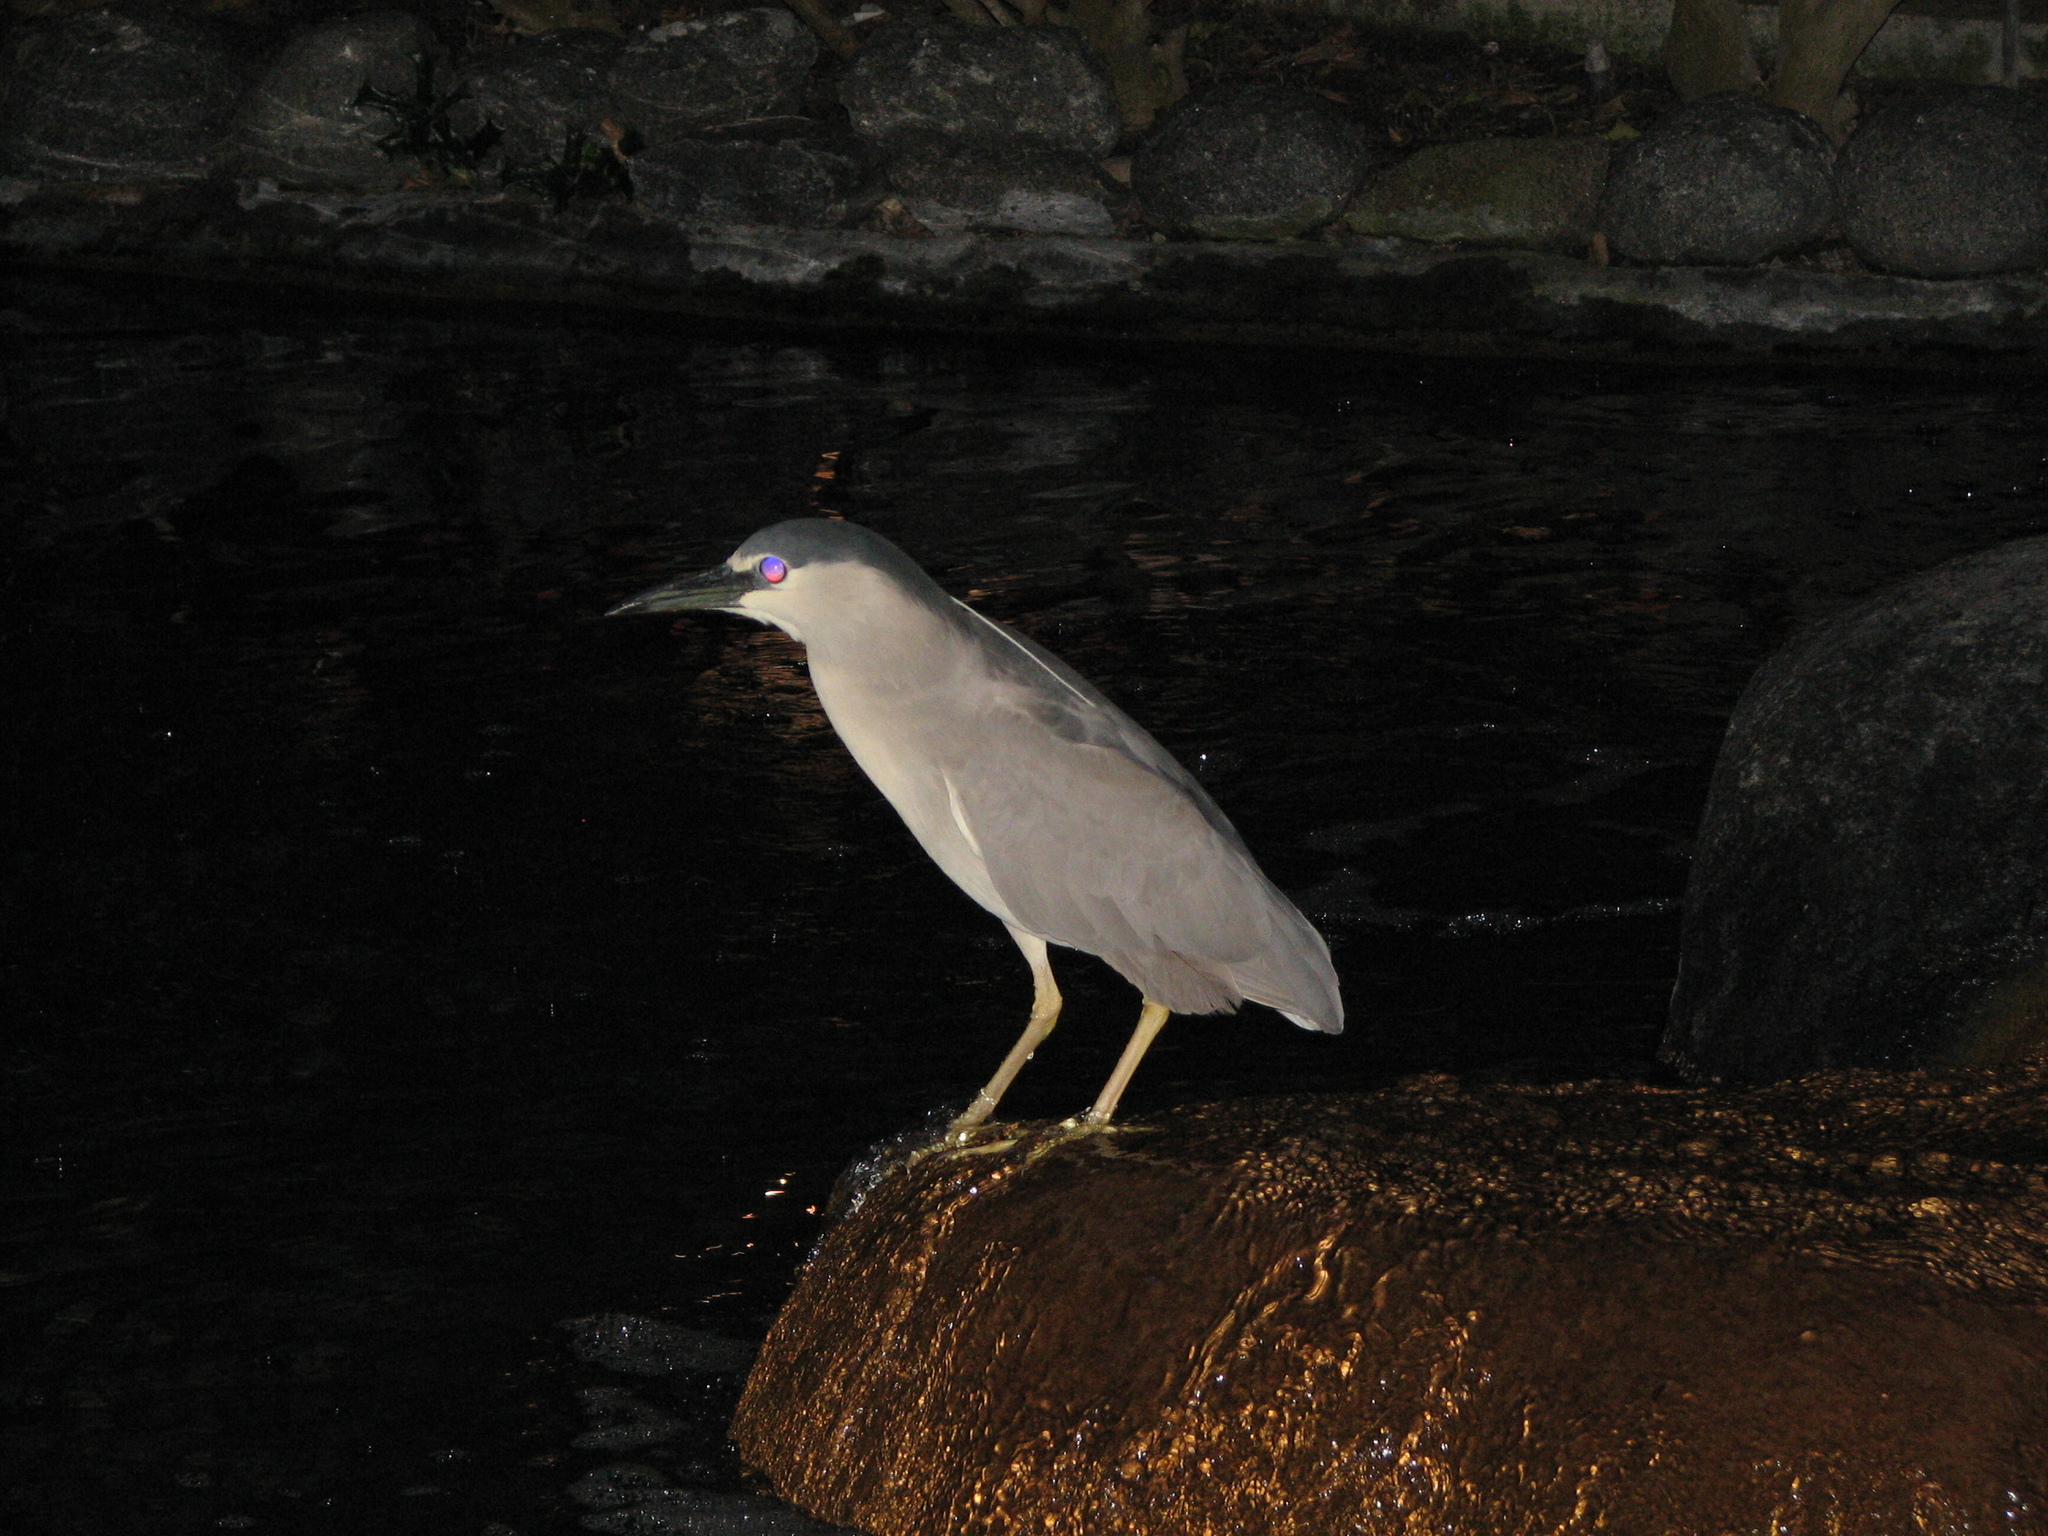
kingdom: Animalia
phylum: Chordata
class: Aves
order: Pelecaniformes
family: Ardeidae
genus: Nycticorax
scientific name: Nycticorax nycticorax
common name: Black-crowned night heron
